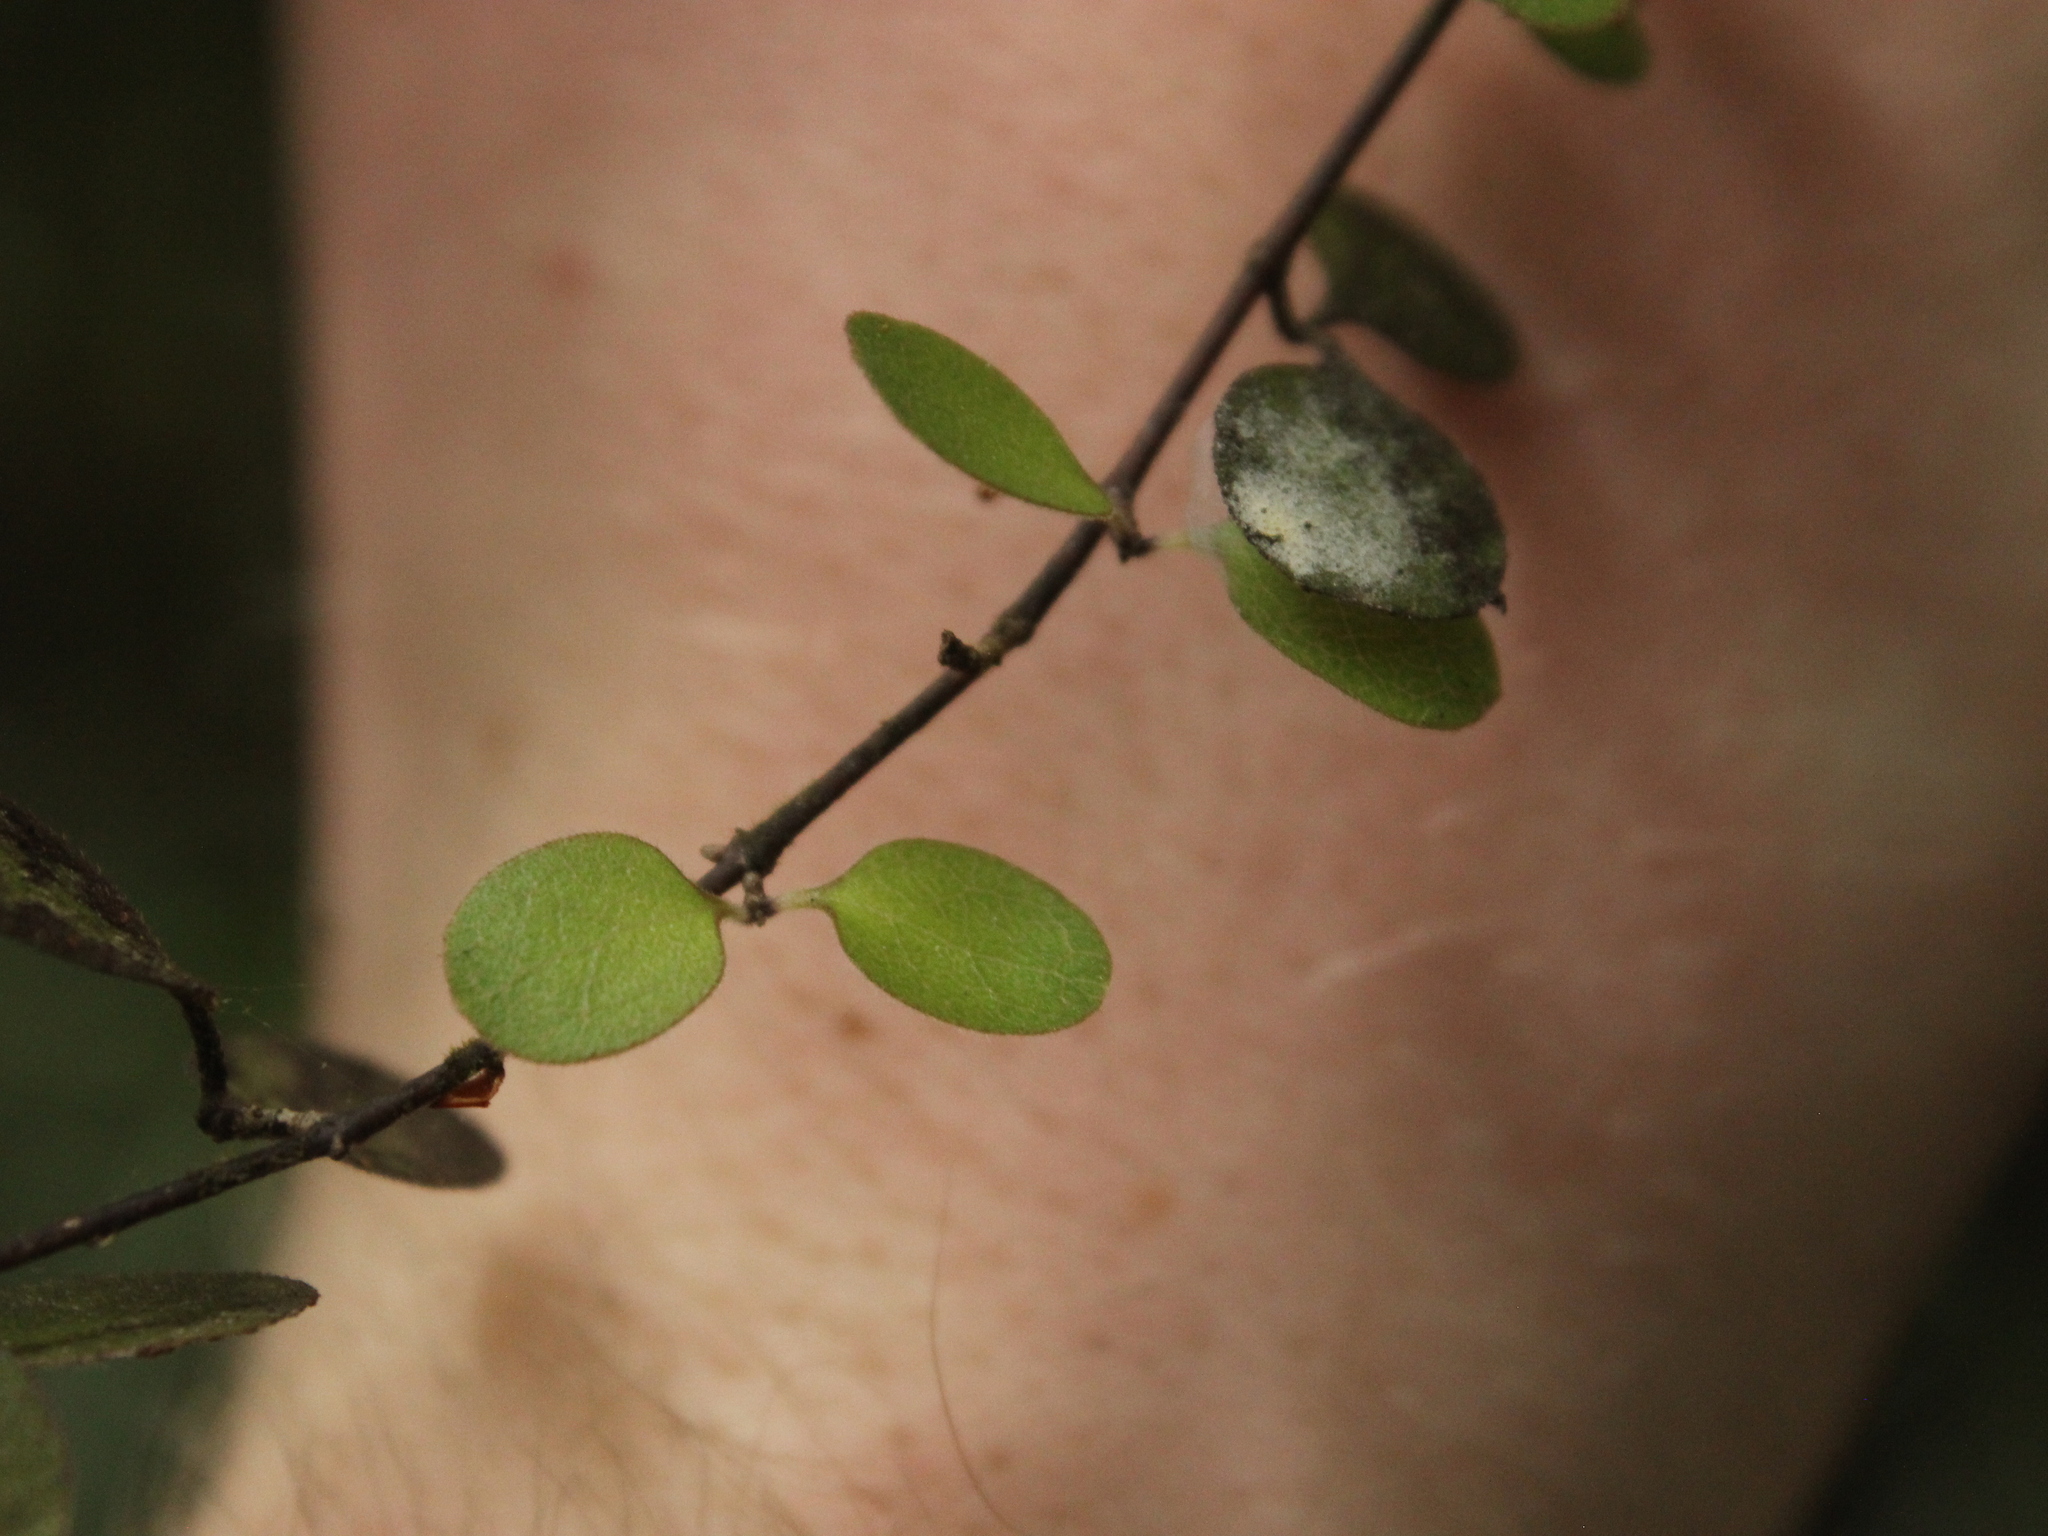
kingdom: Plantae
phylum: Tracheophyta
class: Magnoliopsida
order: Gentianales
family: Rubiaceae
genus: Coprosma
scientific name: Coprosma crassifolia
